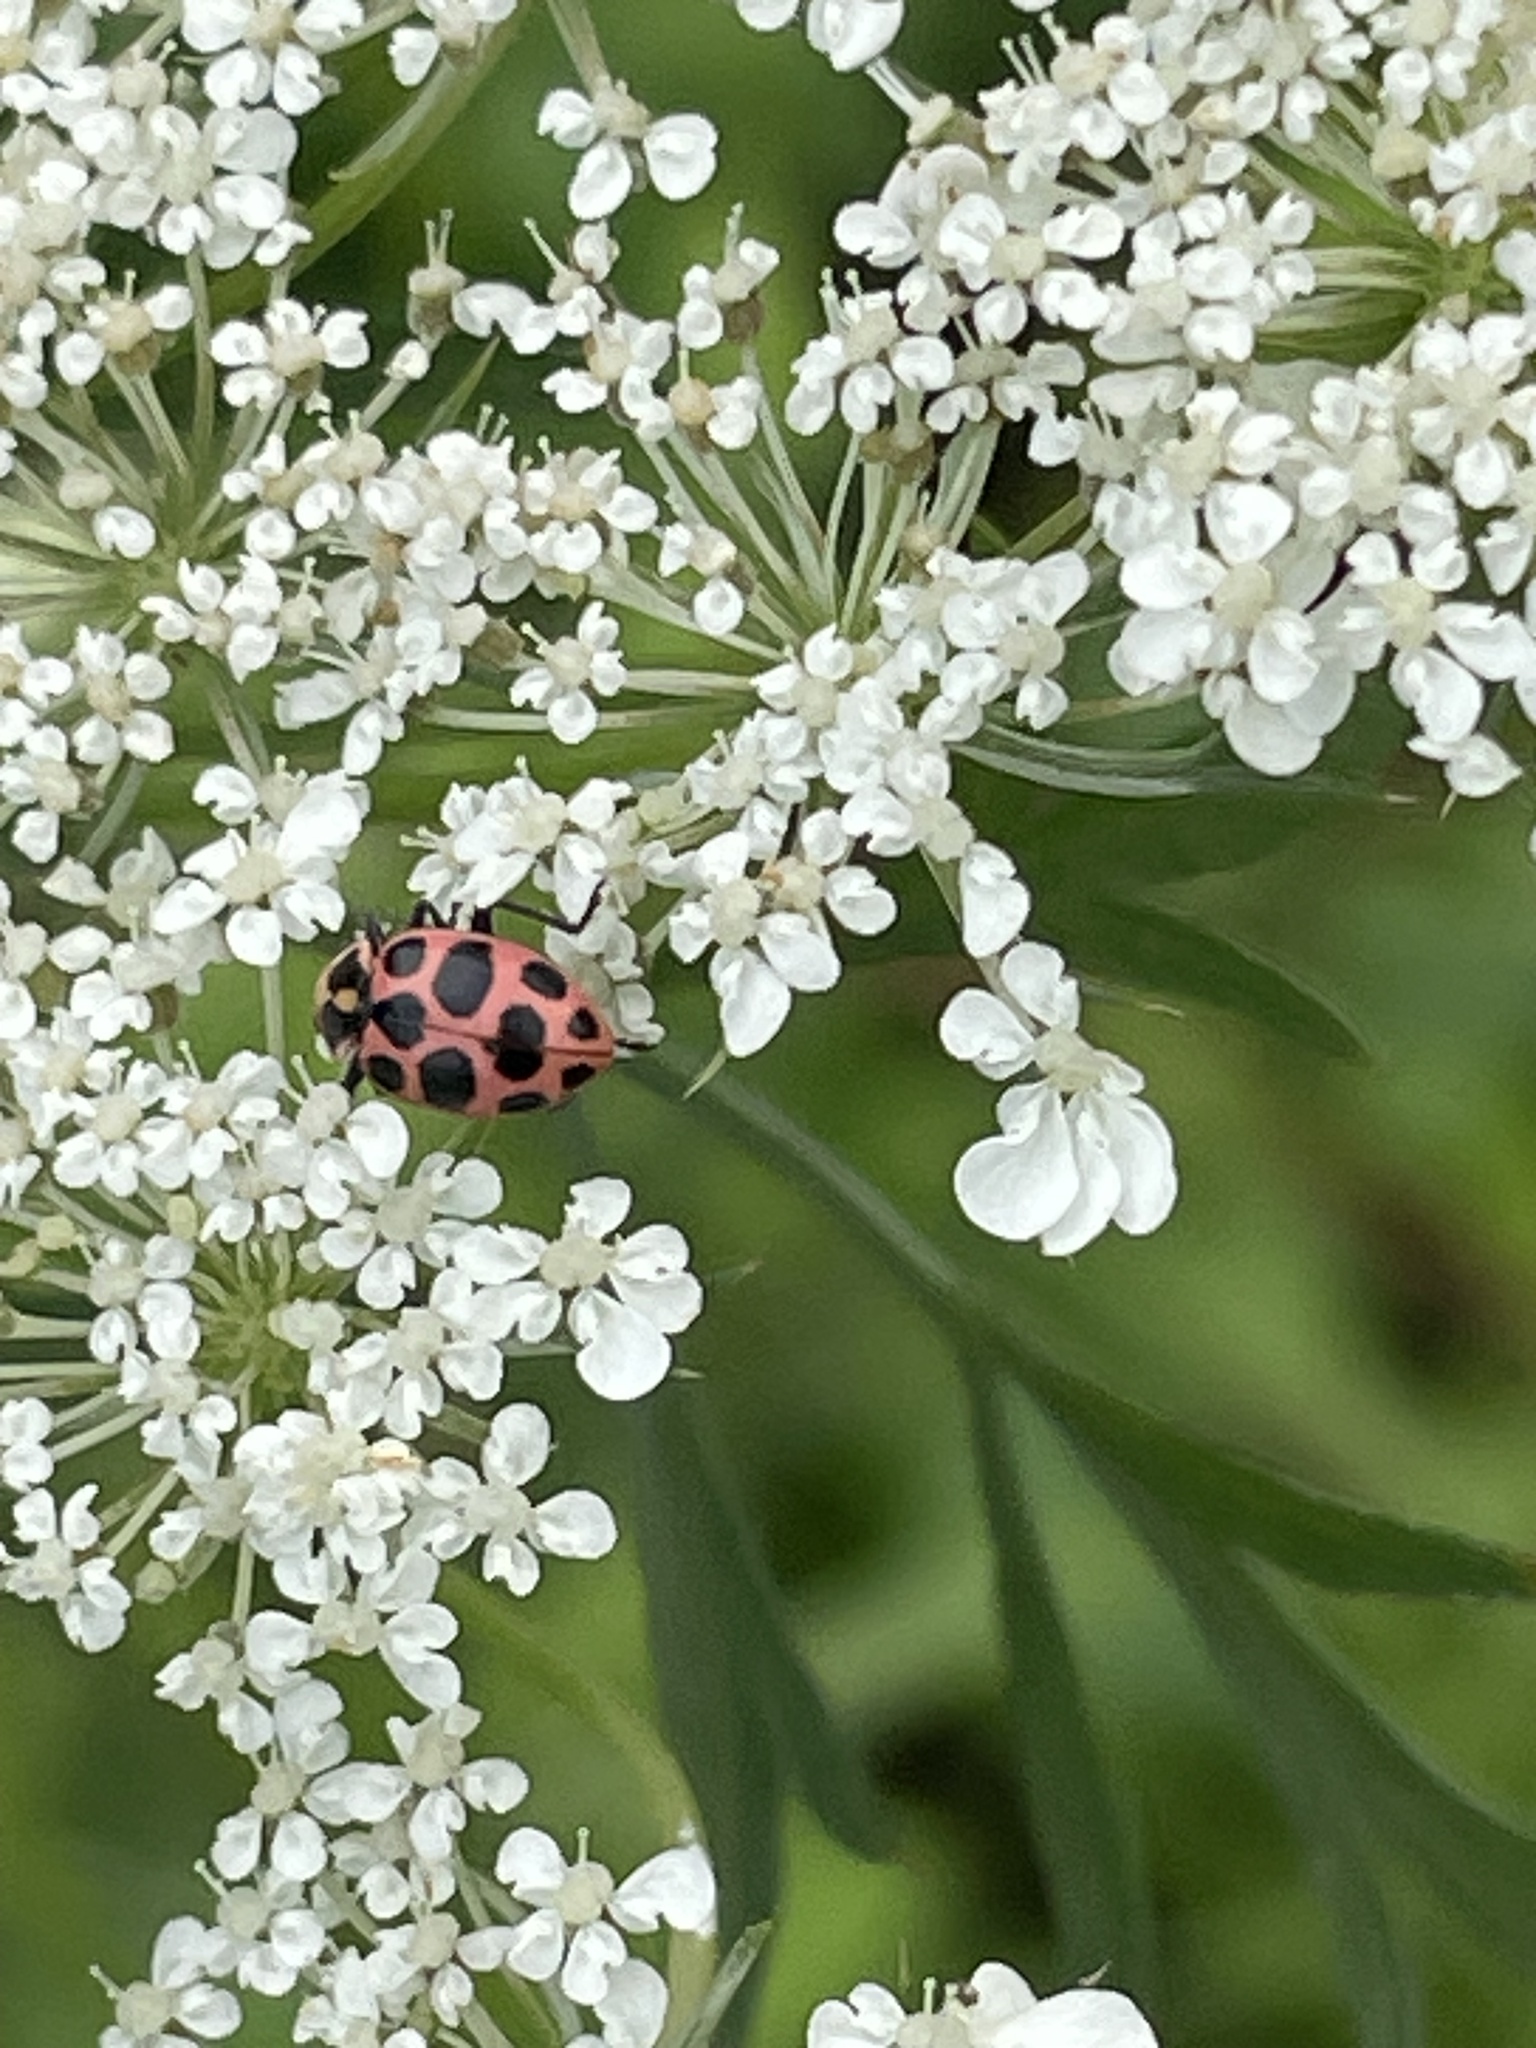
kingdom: Animalia
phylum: Arthropoda
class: Insecta
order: Coleoptera
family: Coccinellidae
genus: Coleomegilla
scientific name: Coleomegilla maculata
